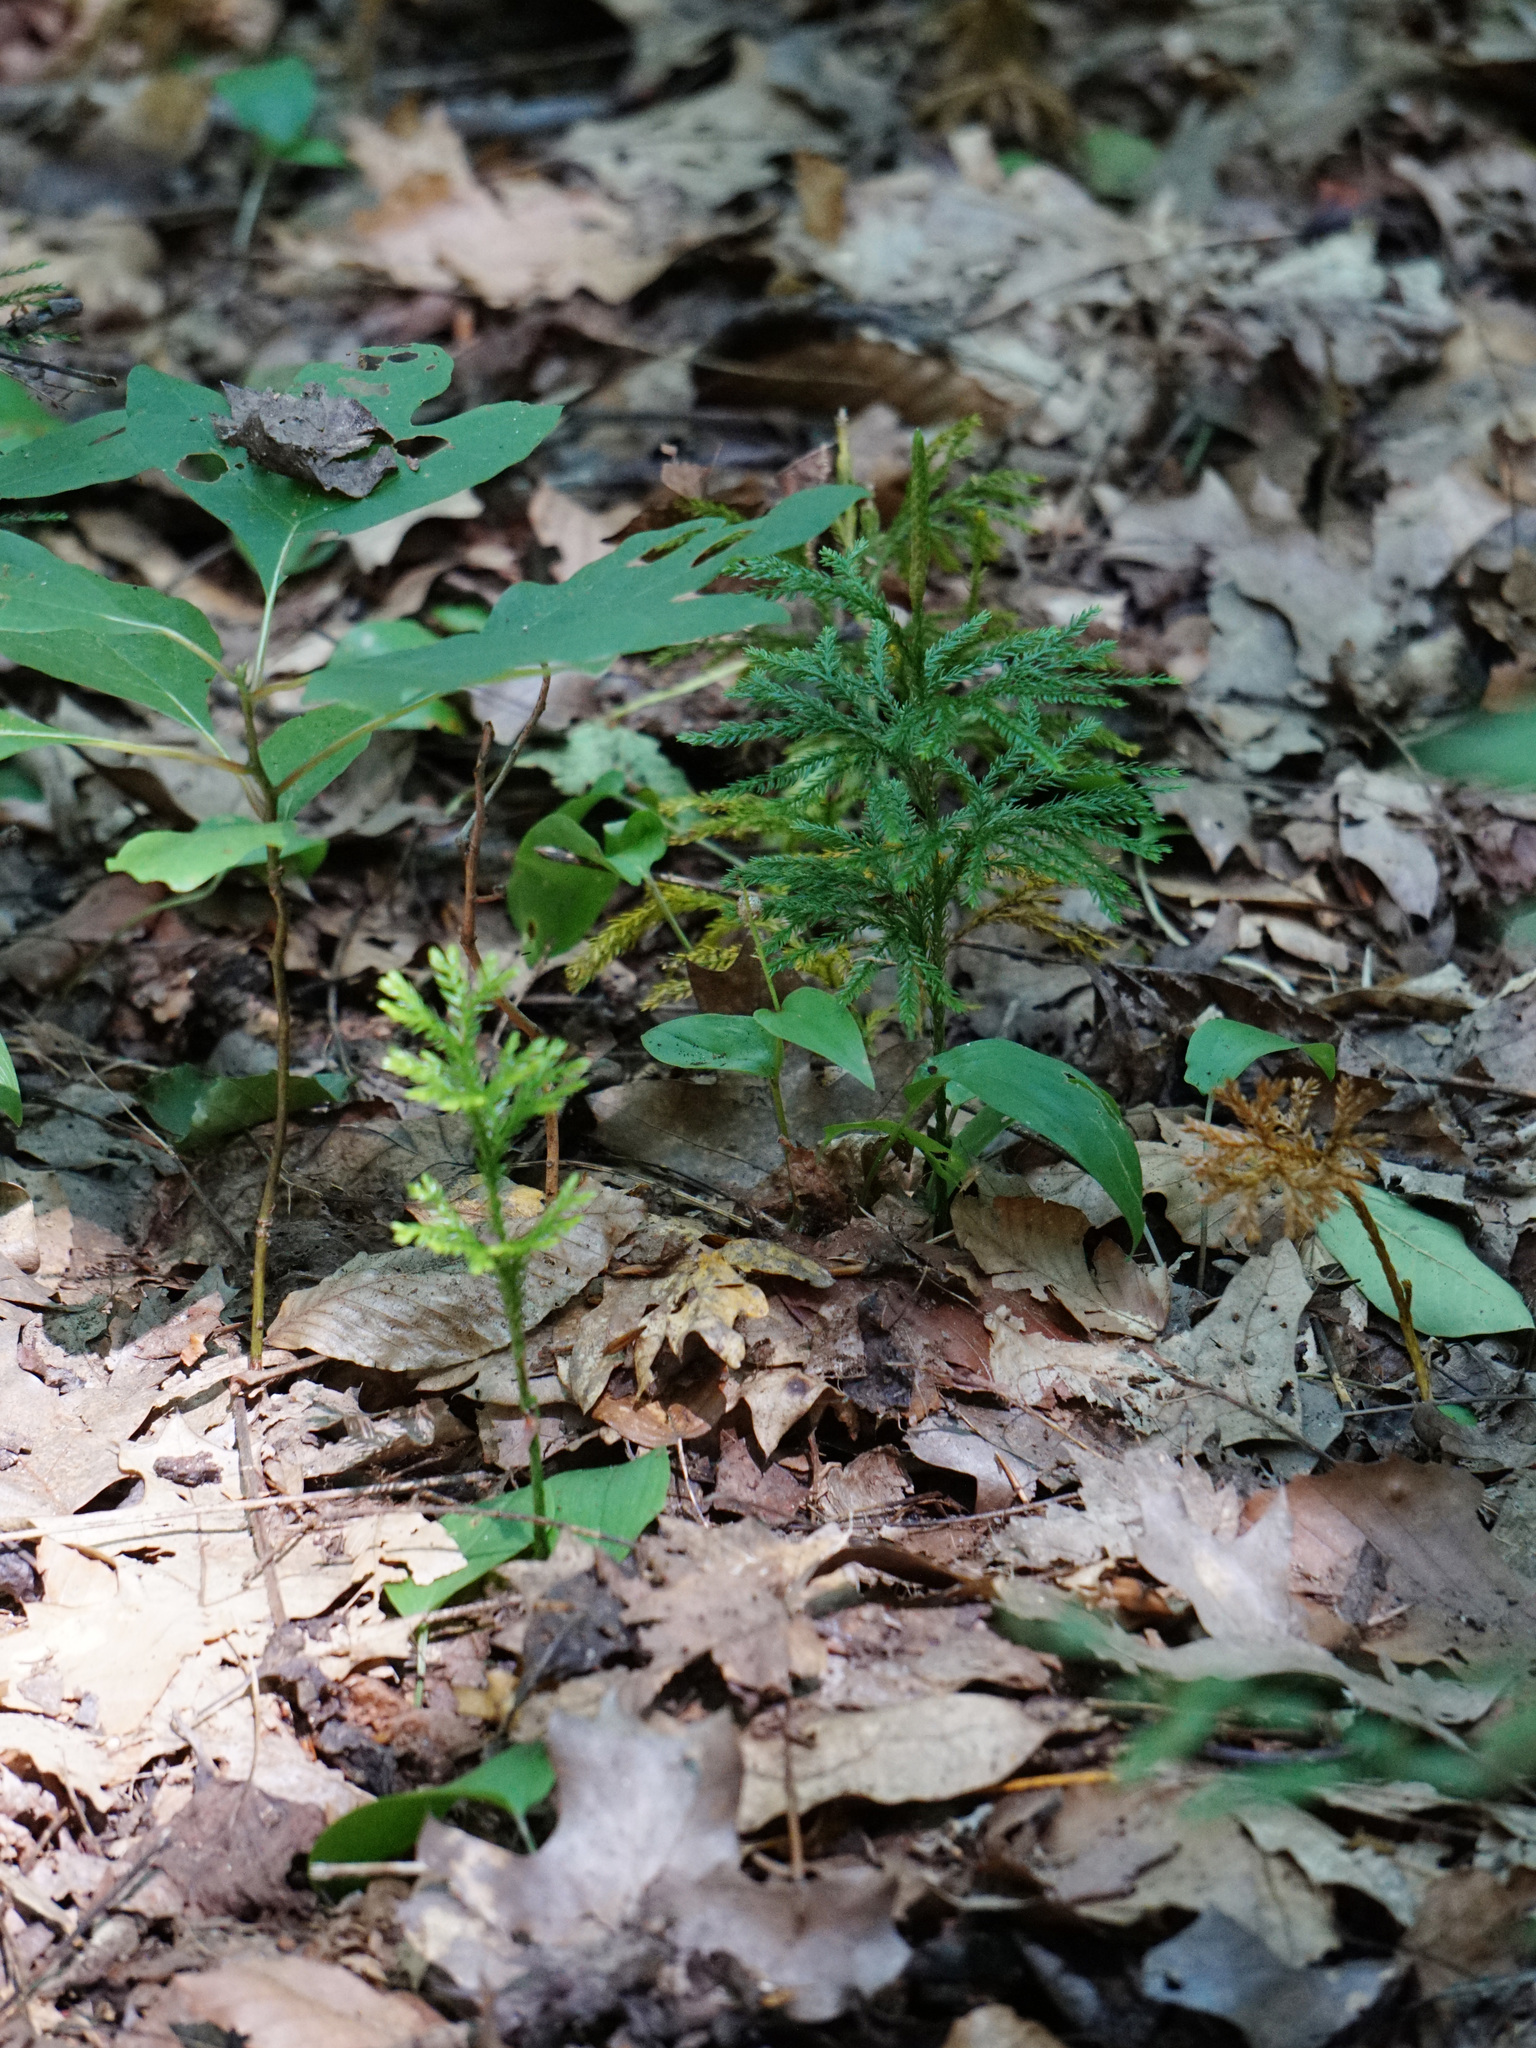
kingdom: Plantae
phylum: Tracheophyta
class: Lycopodiopsida
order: Lycopodiales
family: Lycopodiaceae
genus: Dendrolycopodium
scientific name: Dendrolycopodium obscurum
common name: Common ground-pine
